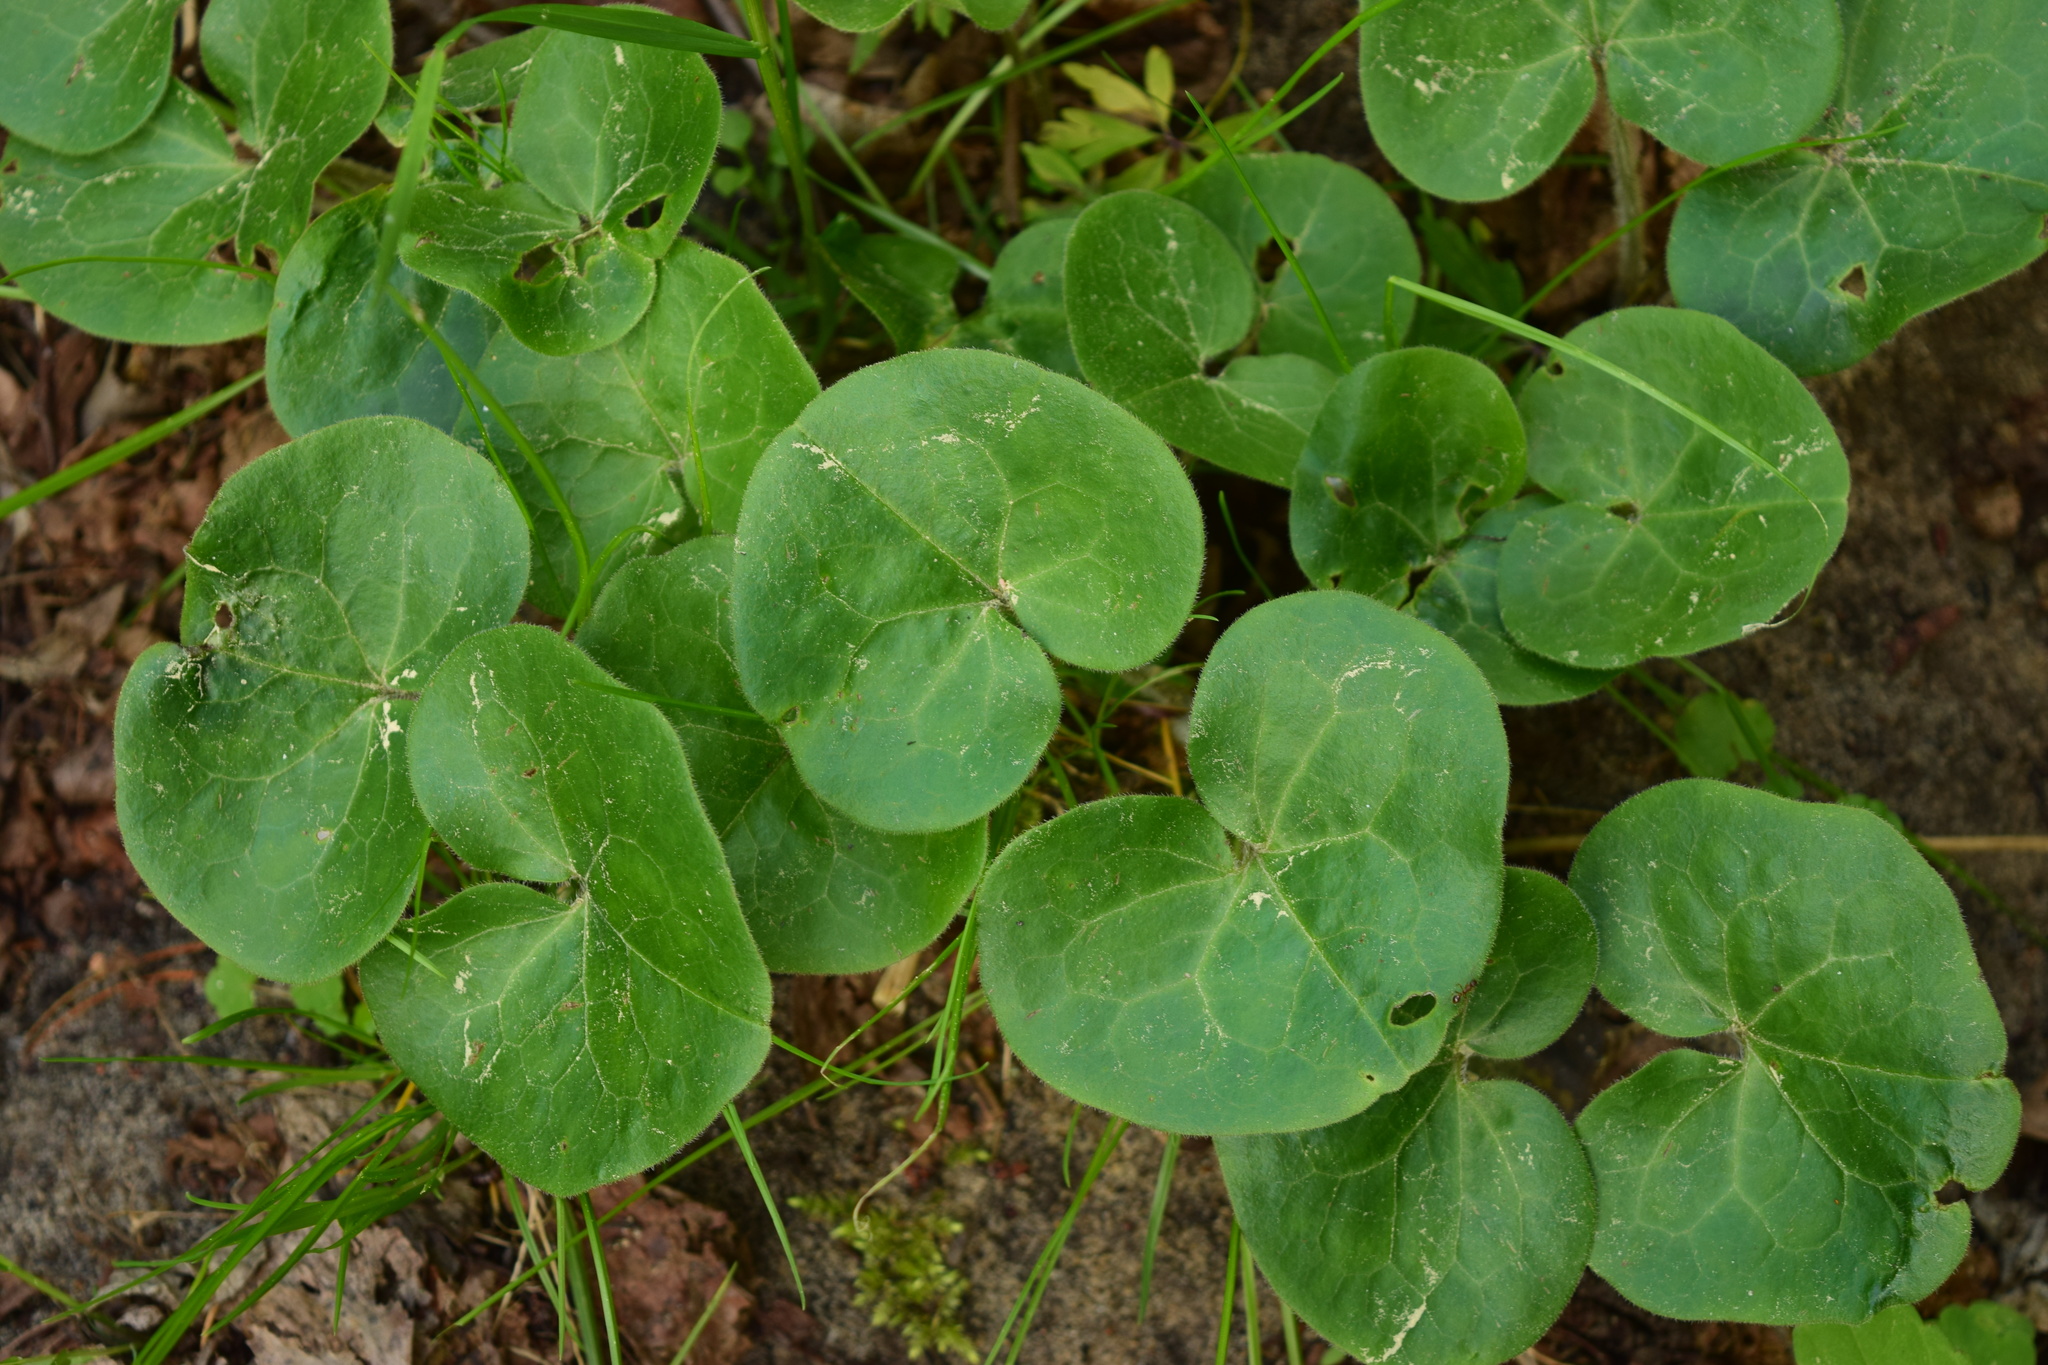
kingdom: Plantae
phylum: Tracheophyta
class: Magnoliopsida
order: Piperales
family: Aristolochiaceae
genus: Asarum
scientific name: Asarum europaeum
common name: Asarabacca
